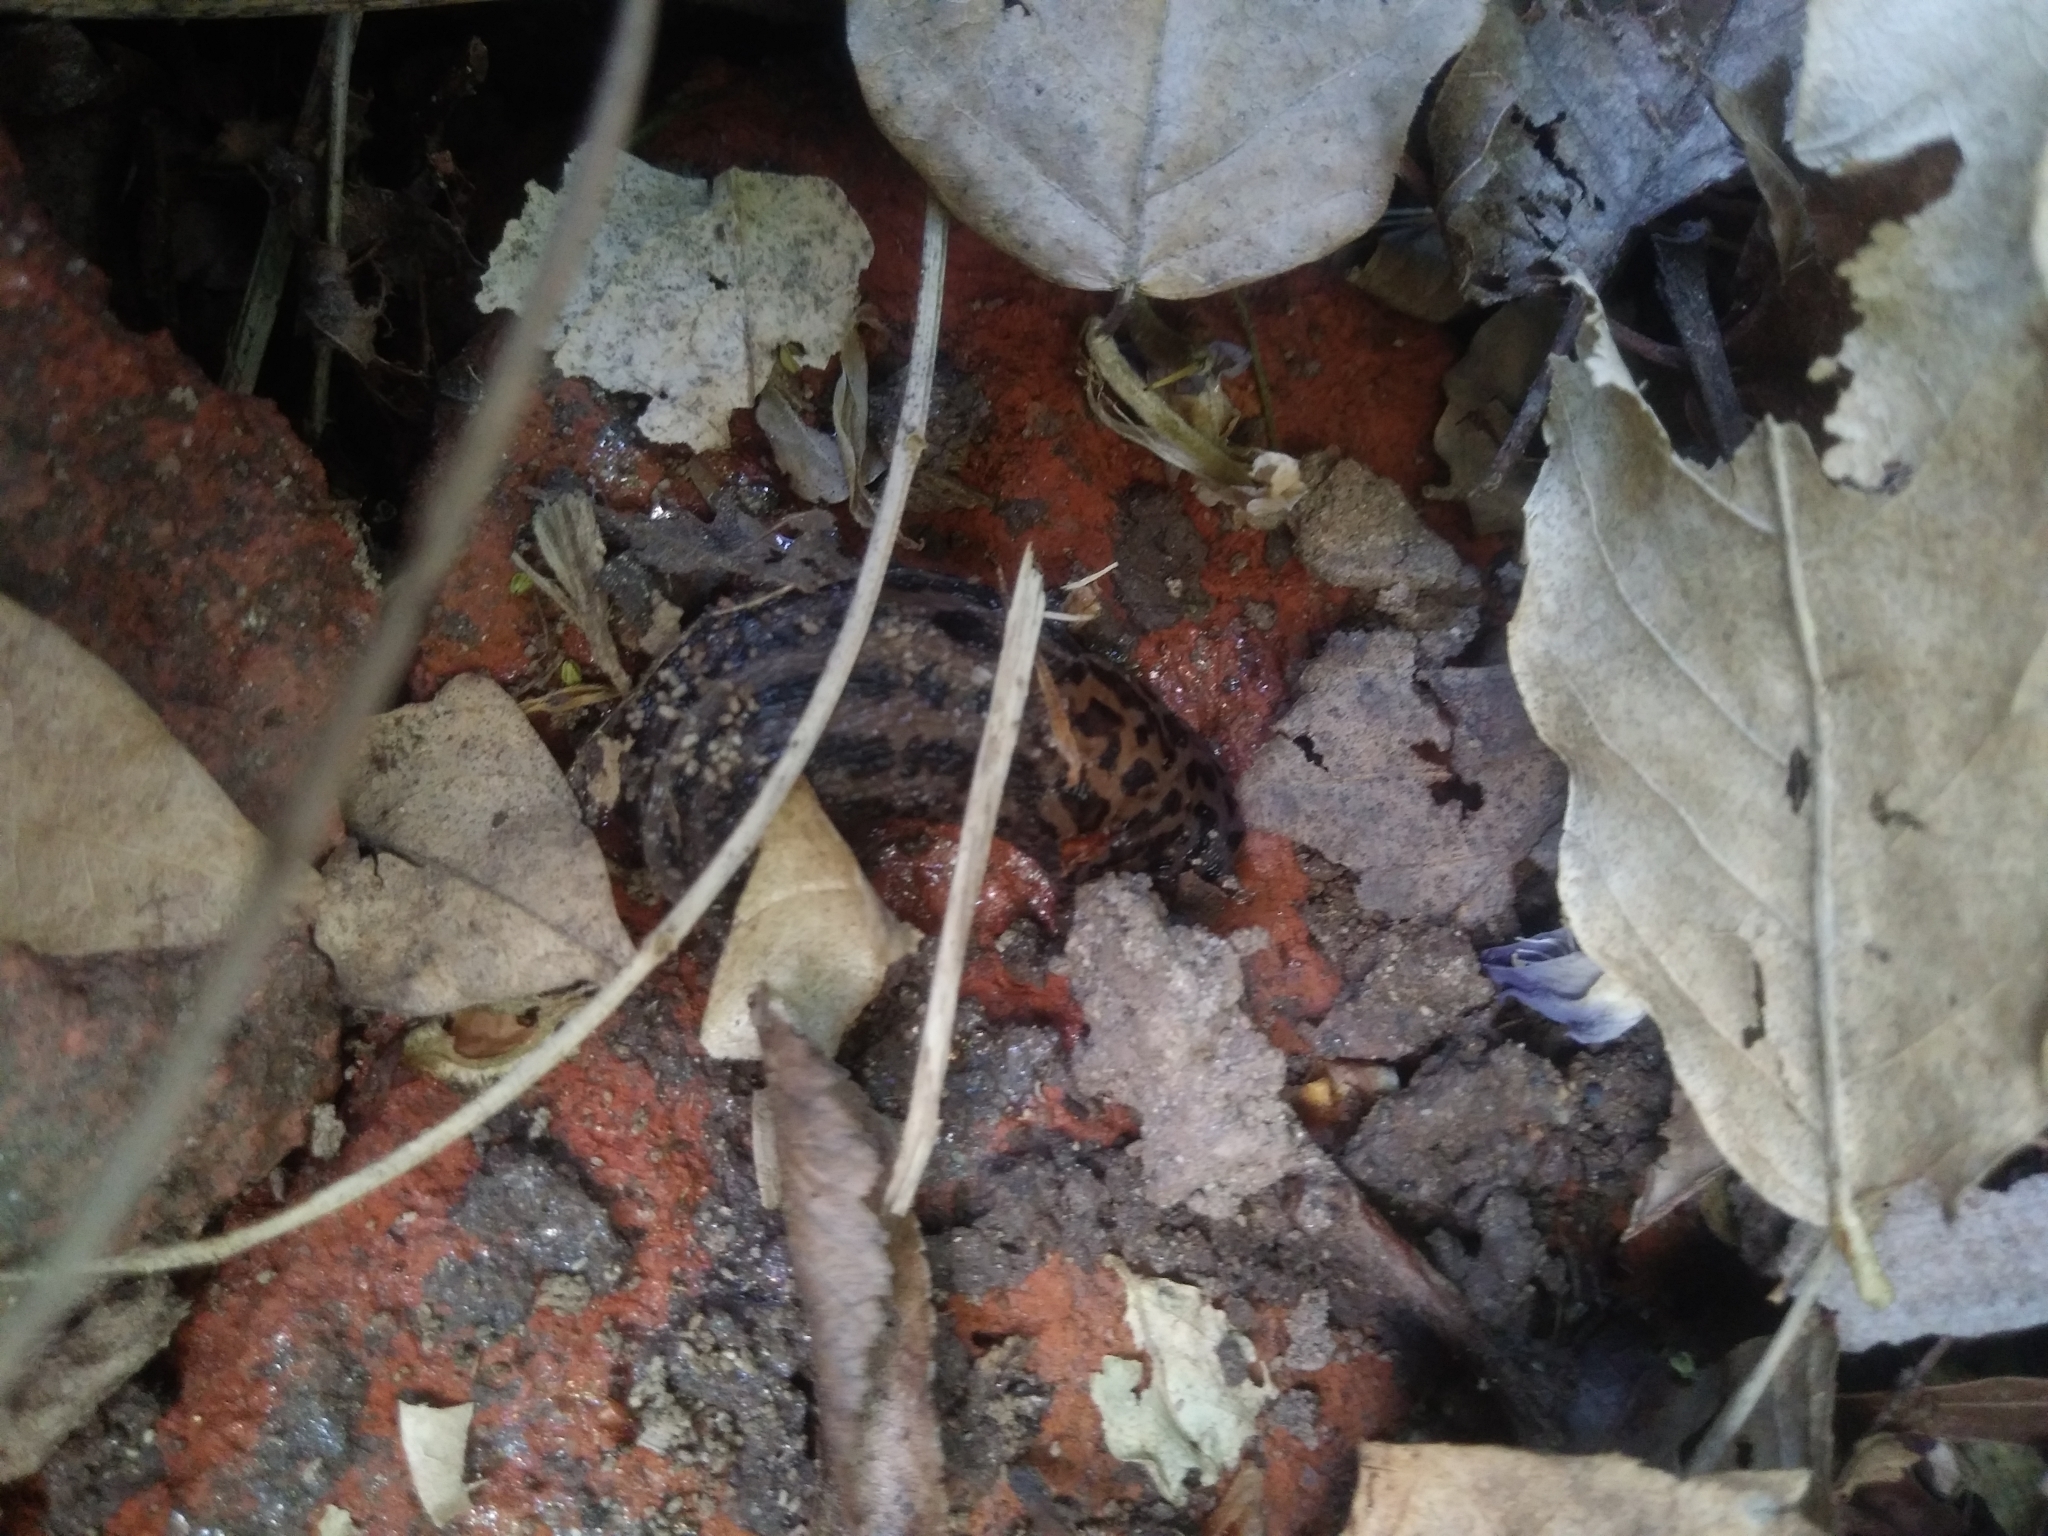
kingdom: Animalia
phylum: Mollusca
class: Gastropoda
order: Stylommatophora
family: Limacidae
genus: Limax
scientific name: Limax maximus
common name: Great grey slug
